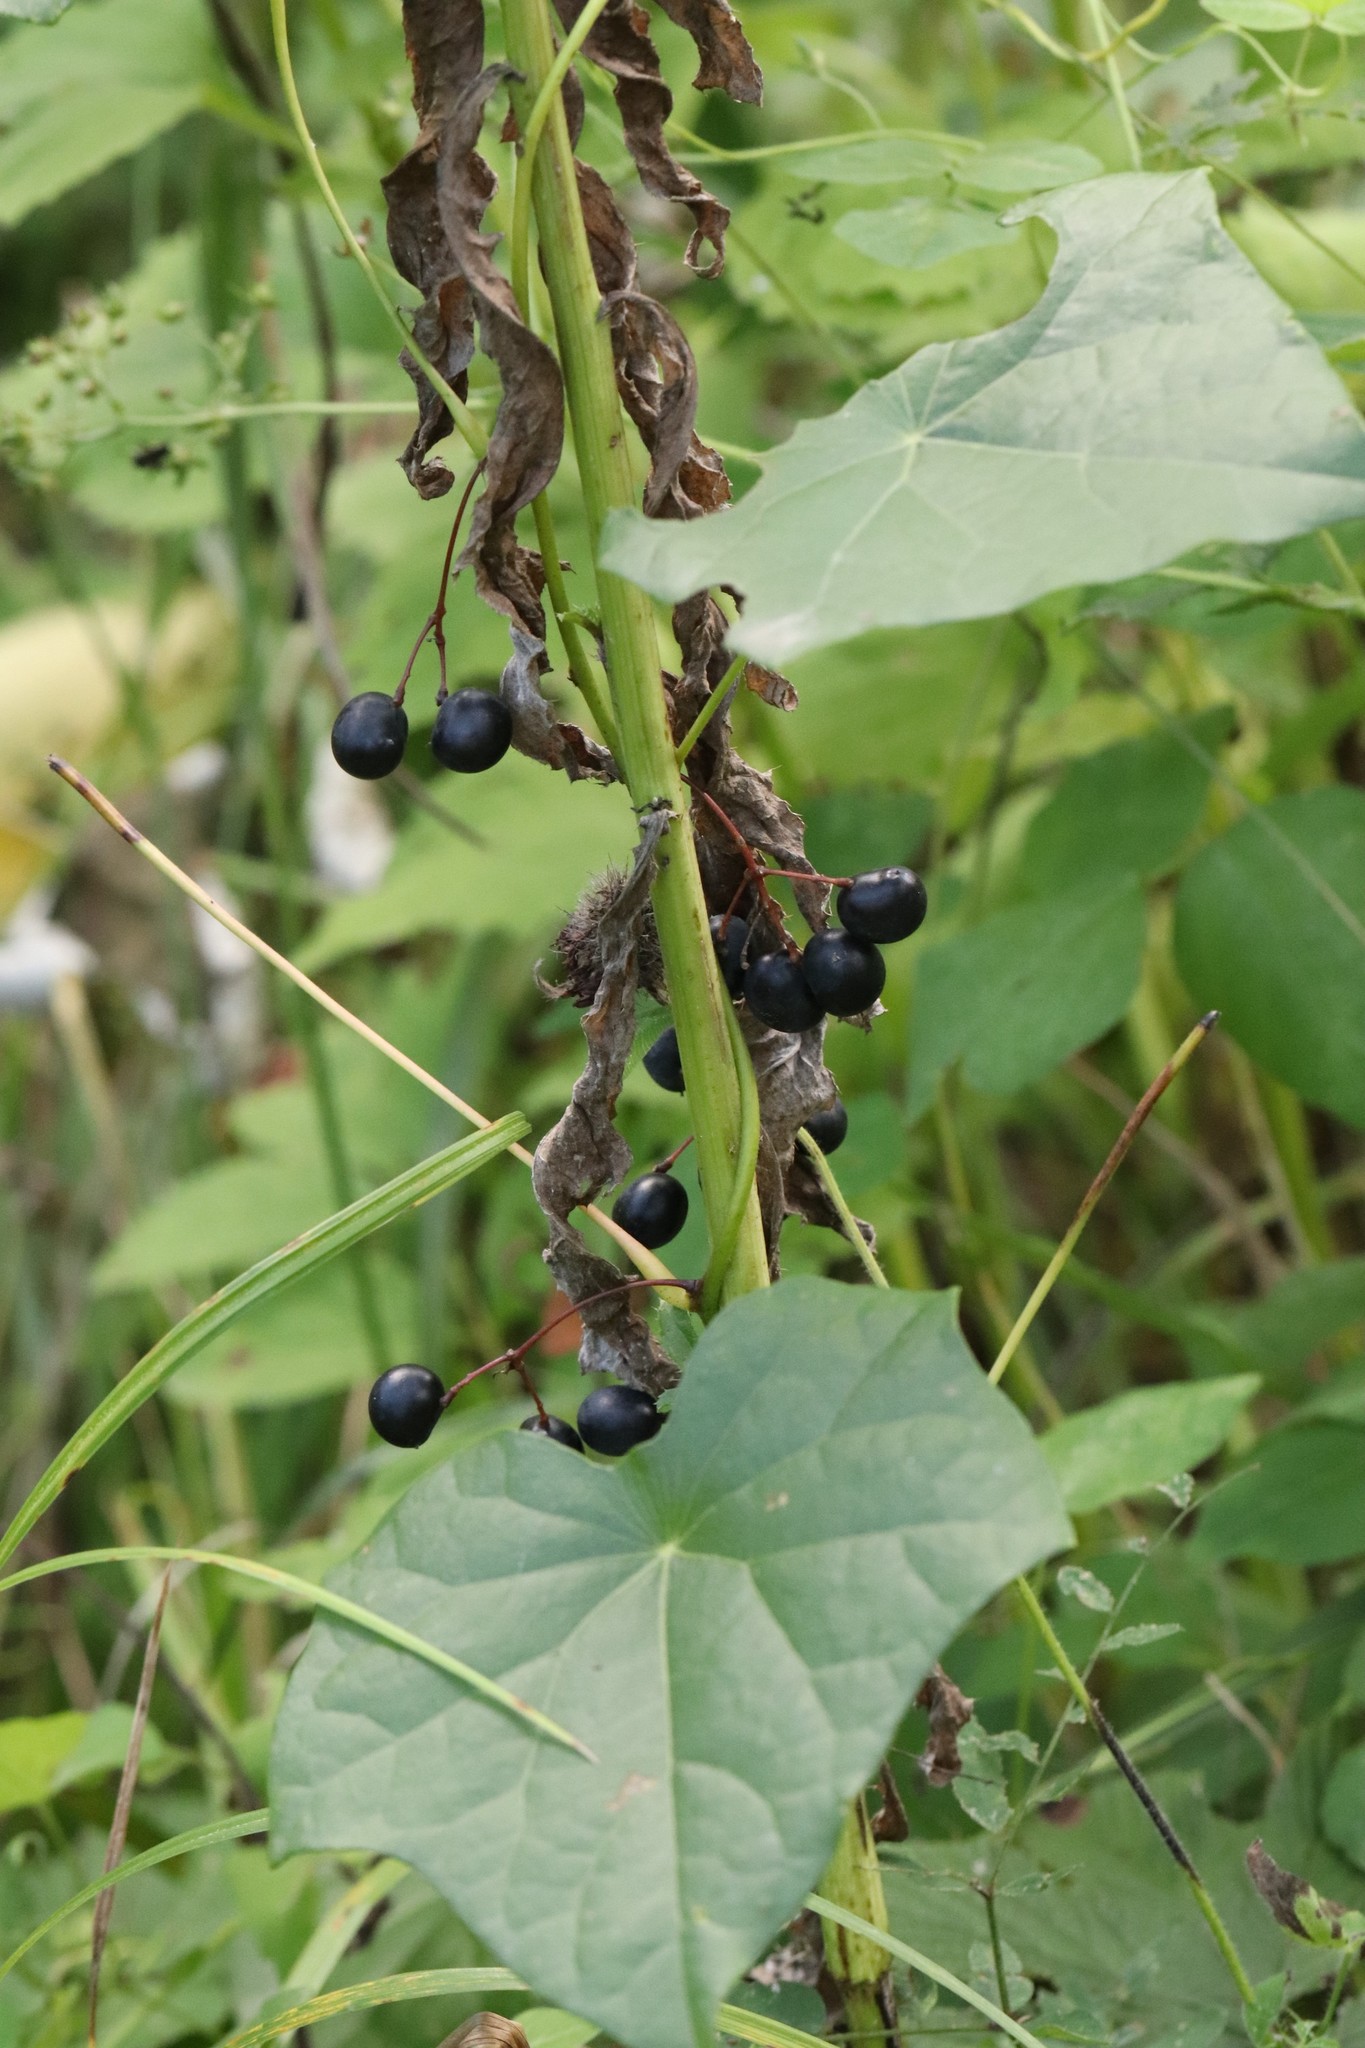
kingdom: Plantae
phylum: Tracheophyta
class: Magnoliopsida
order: Ranunculales
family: Menispermaceae
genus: Menispermum
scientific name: Menispermum dauricum
